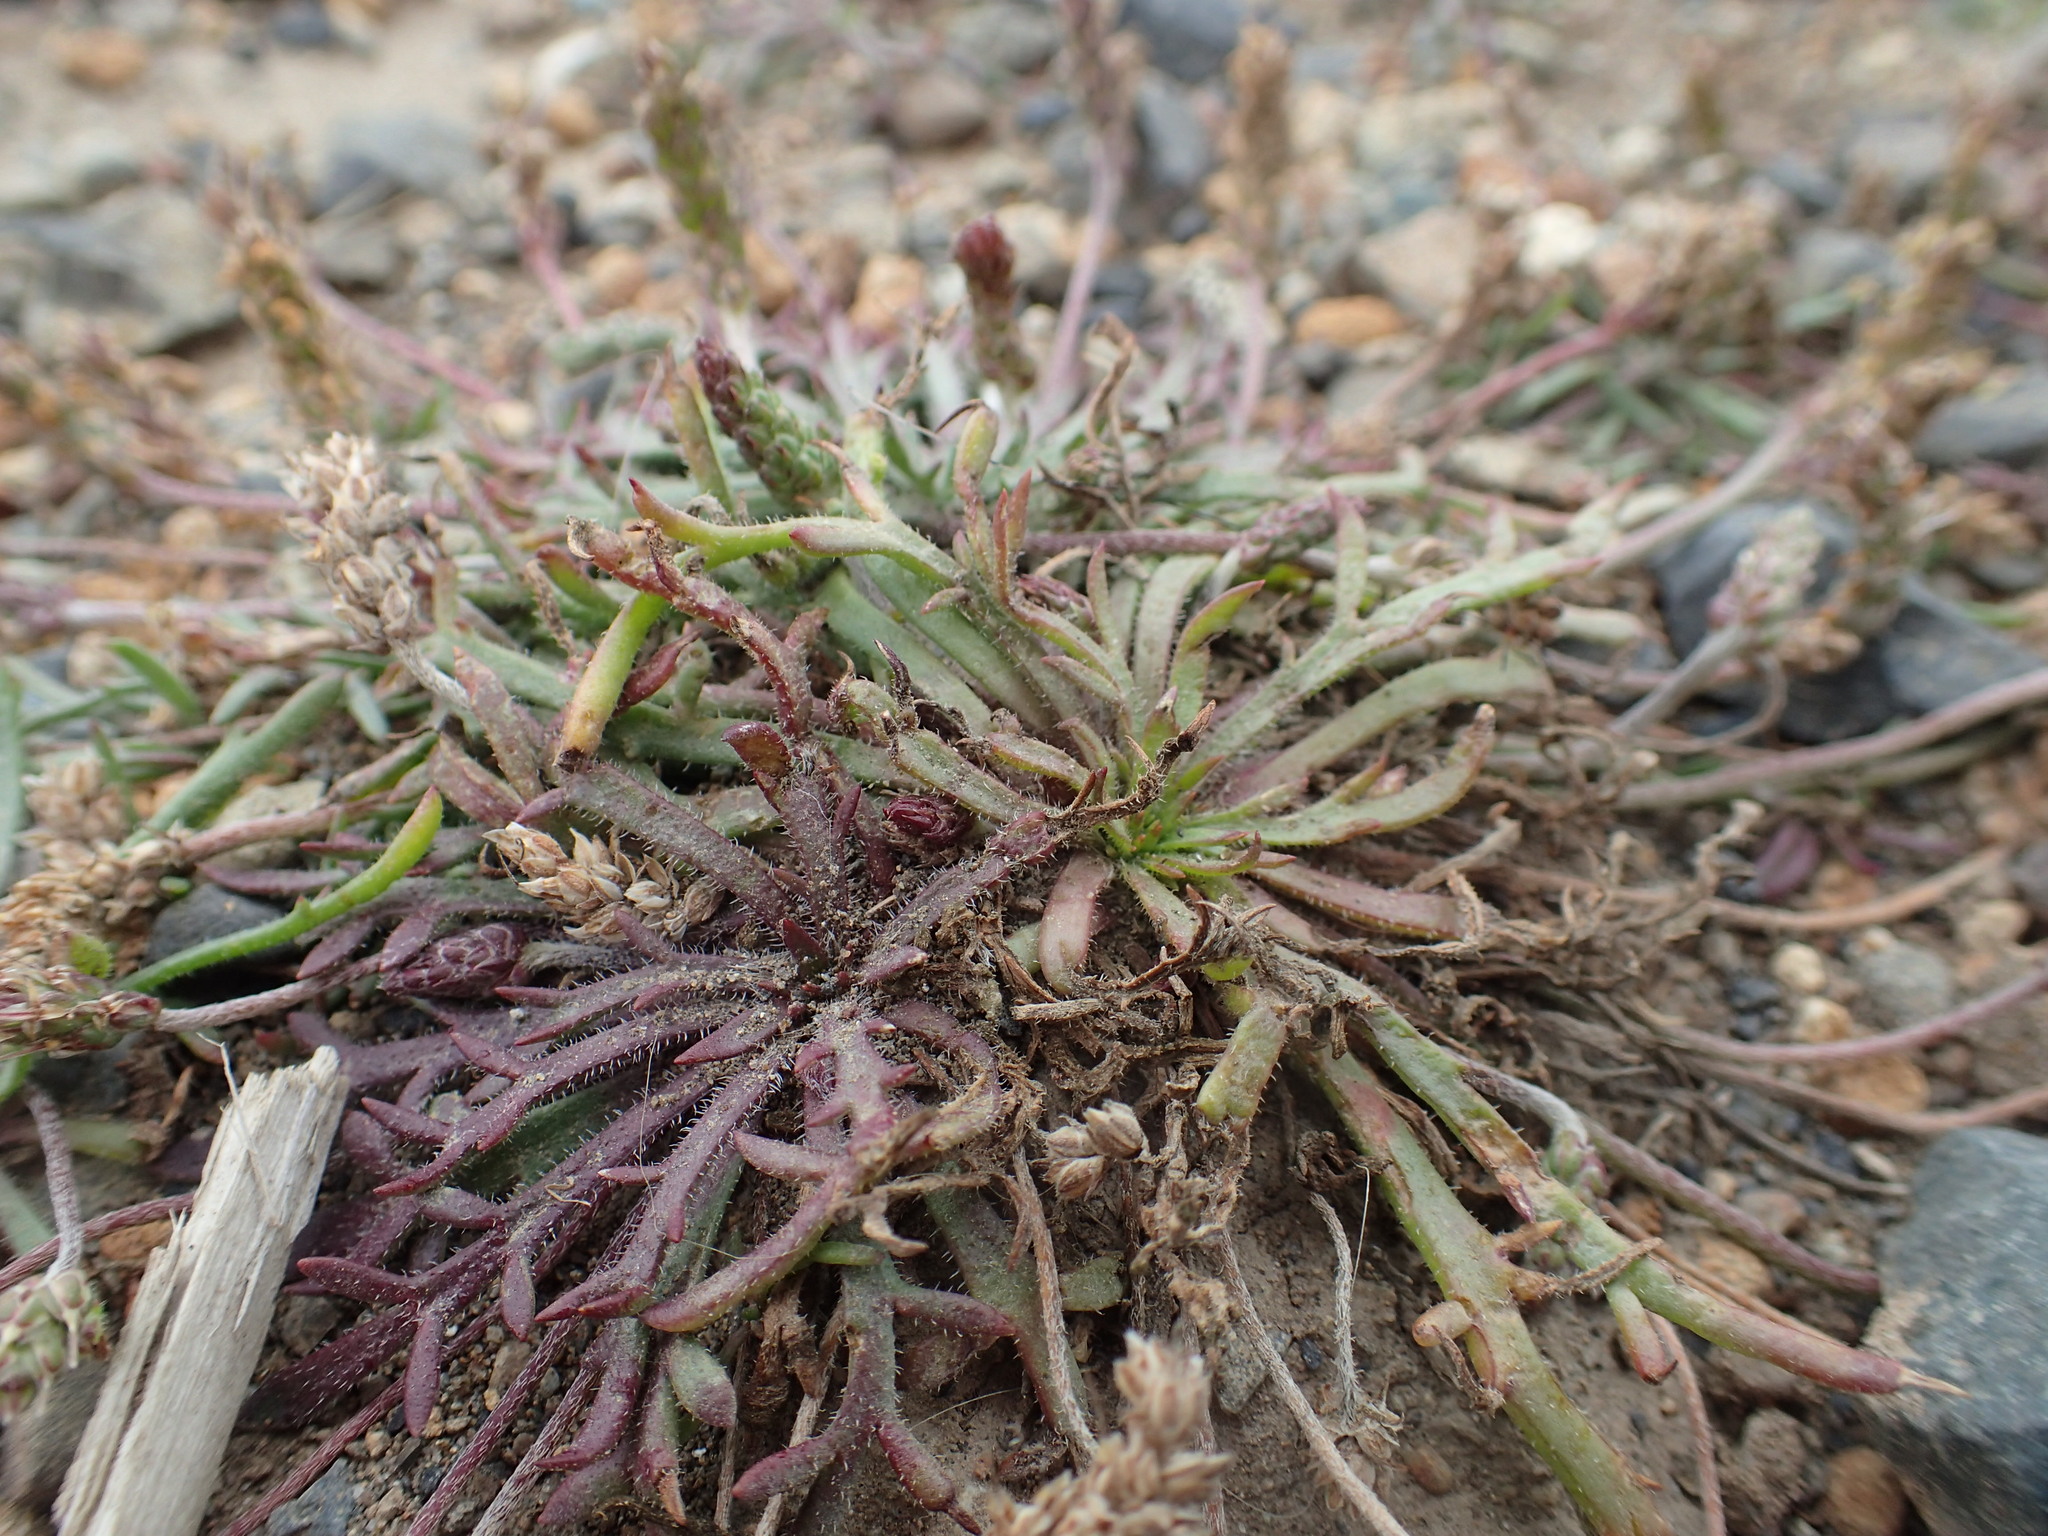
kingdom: Plantae
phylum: Tracheophyta
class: Magnoliopsida
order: Lamiales
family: Plantaginaceae
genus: Plantago
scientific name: Plantago coronopus
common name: Buck's-horn plantain
